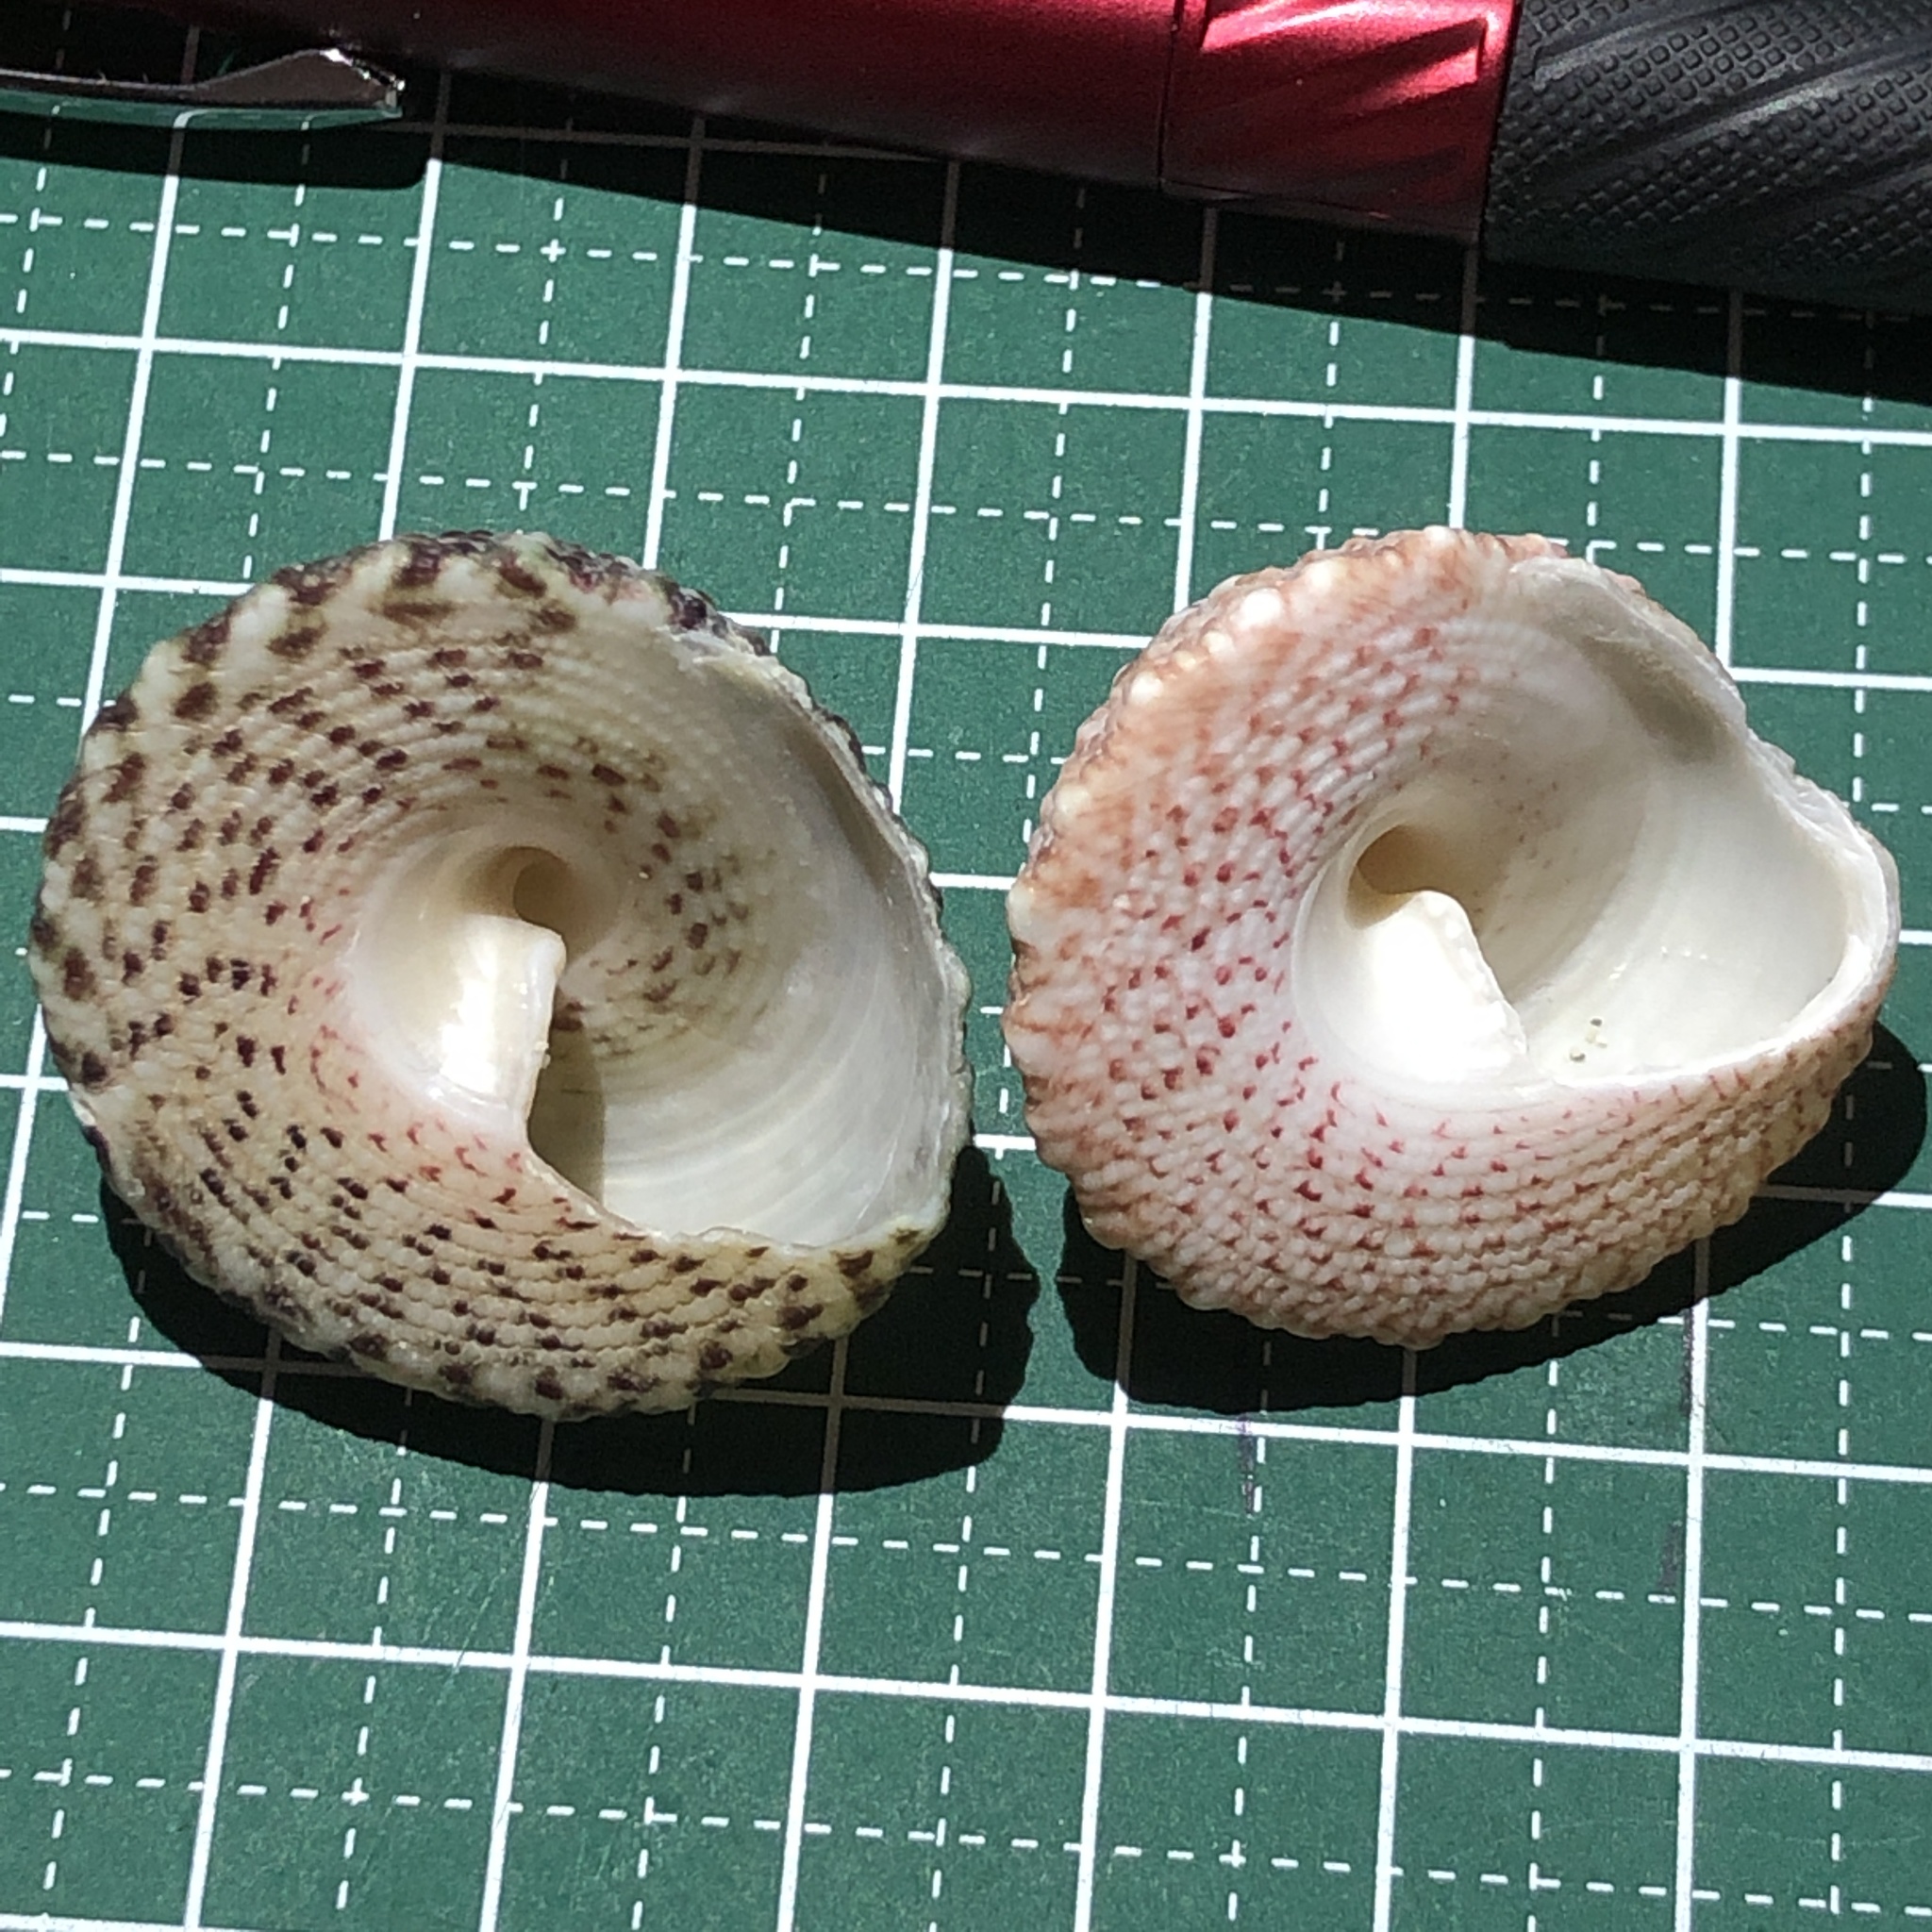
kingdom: Animalia
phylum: Mollusca
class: Gastropoda
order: Trochida
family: Trochidae
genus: Trochus
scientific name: Trochus maculatus
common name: Maculated top shell
